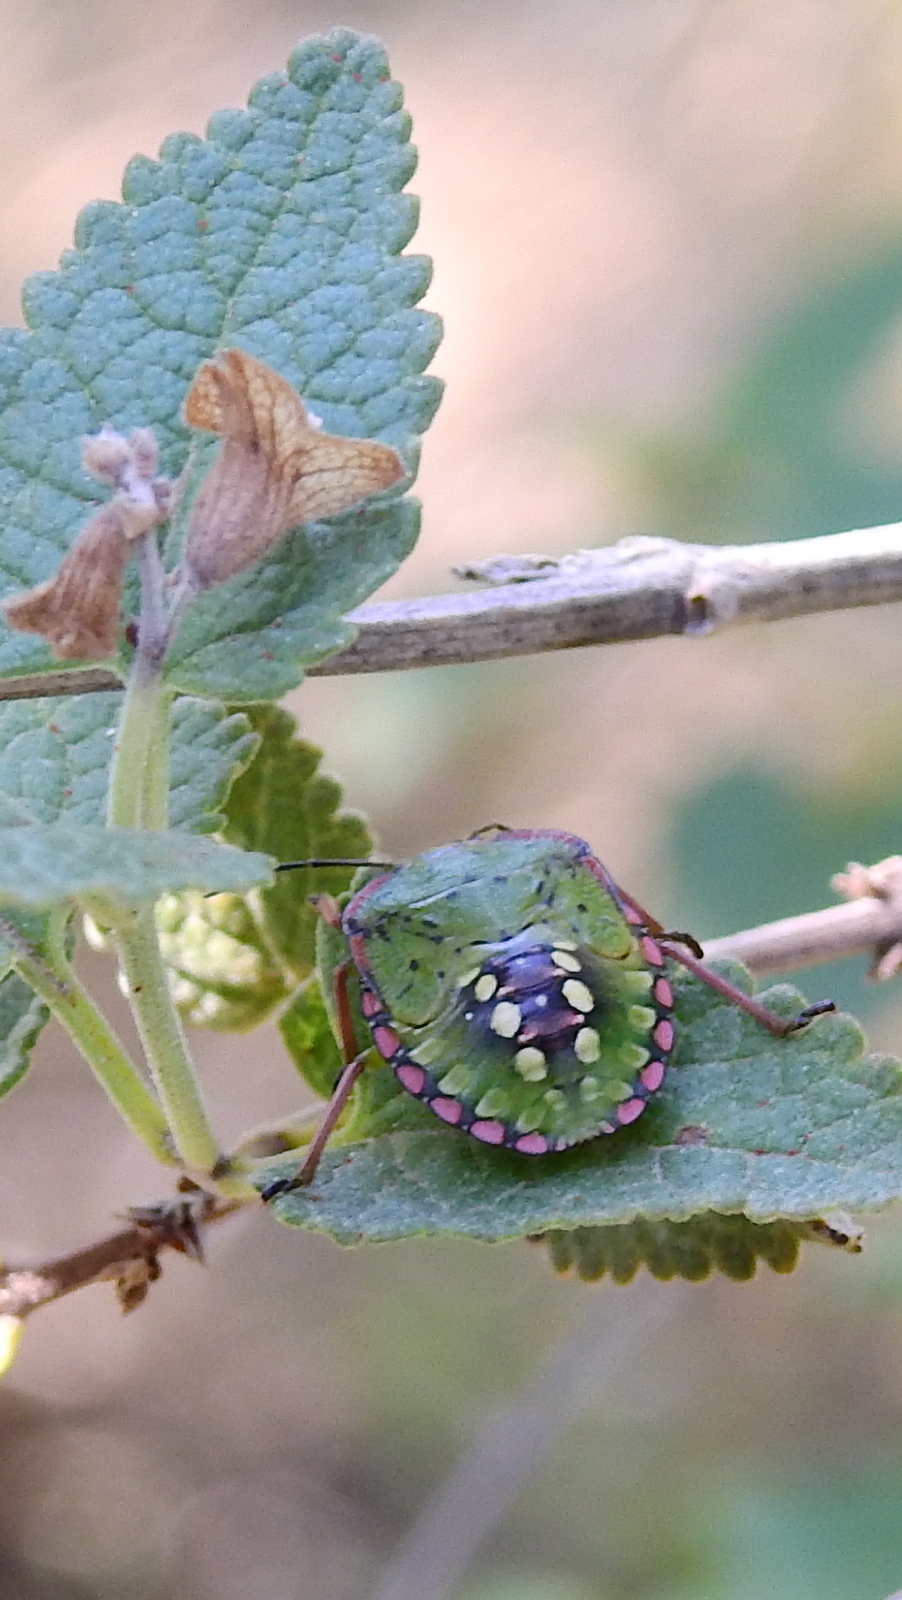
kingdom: Animalia
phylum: Arthropoda
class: Insecta
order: Hemiptera
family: Pentatomidae
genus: Nezara
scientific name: Nezara viridula
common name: Southern green stink bug
